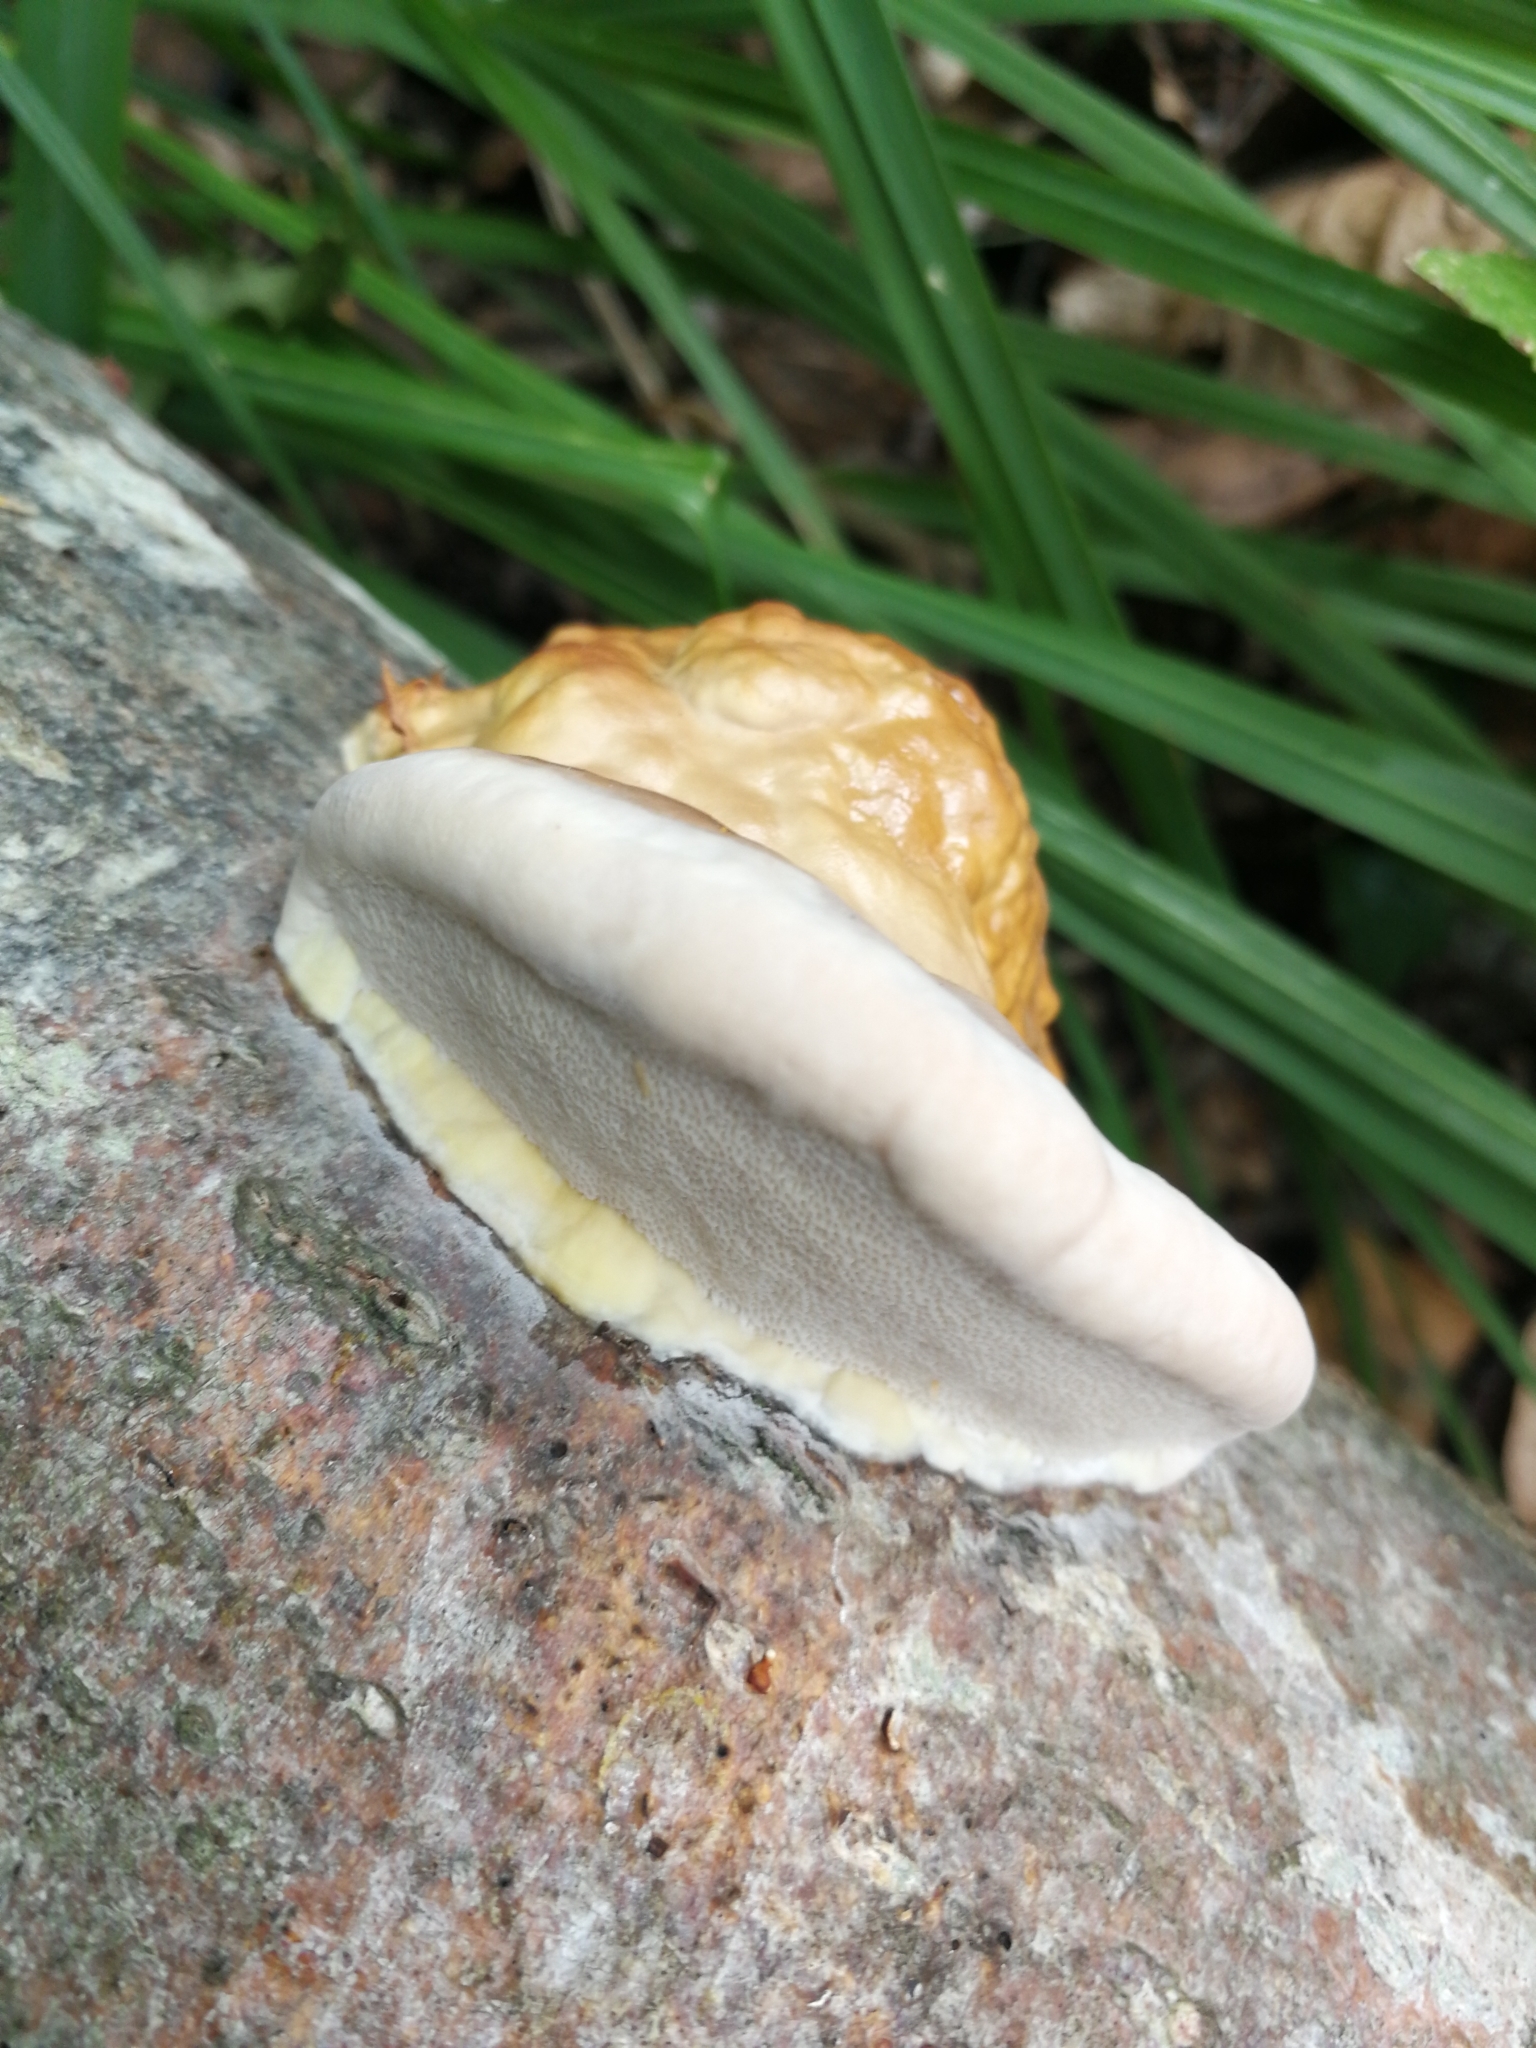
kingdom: Fungi
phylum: Basidiomycota
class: Agaricomycetes
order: Polyporales
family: Fomitopsidaceae
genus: Fomitopsis
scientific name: Fomitopsis pinicola
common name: Red-belted bracket
